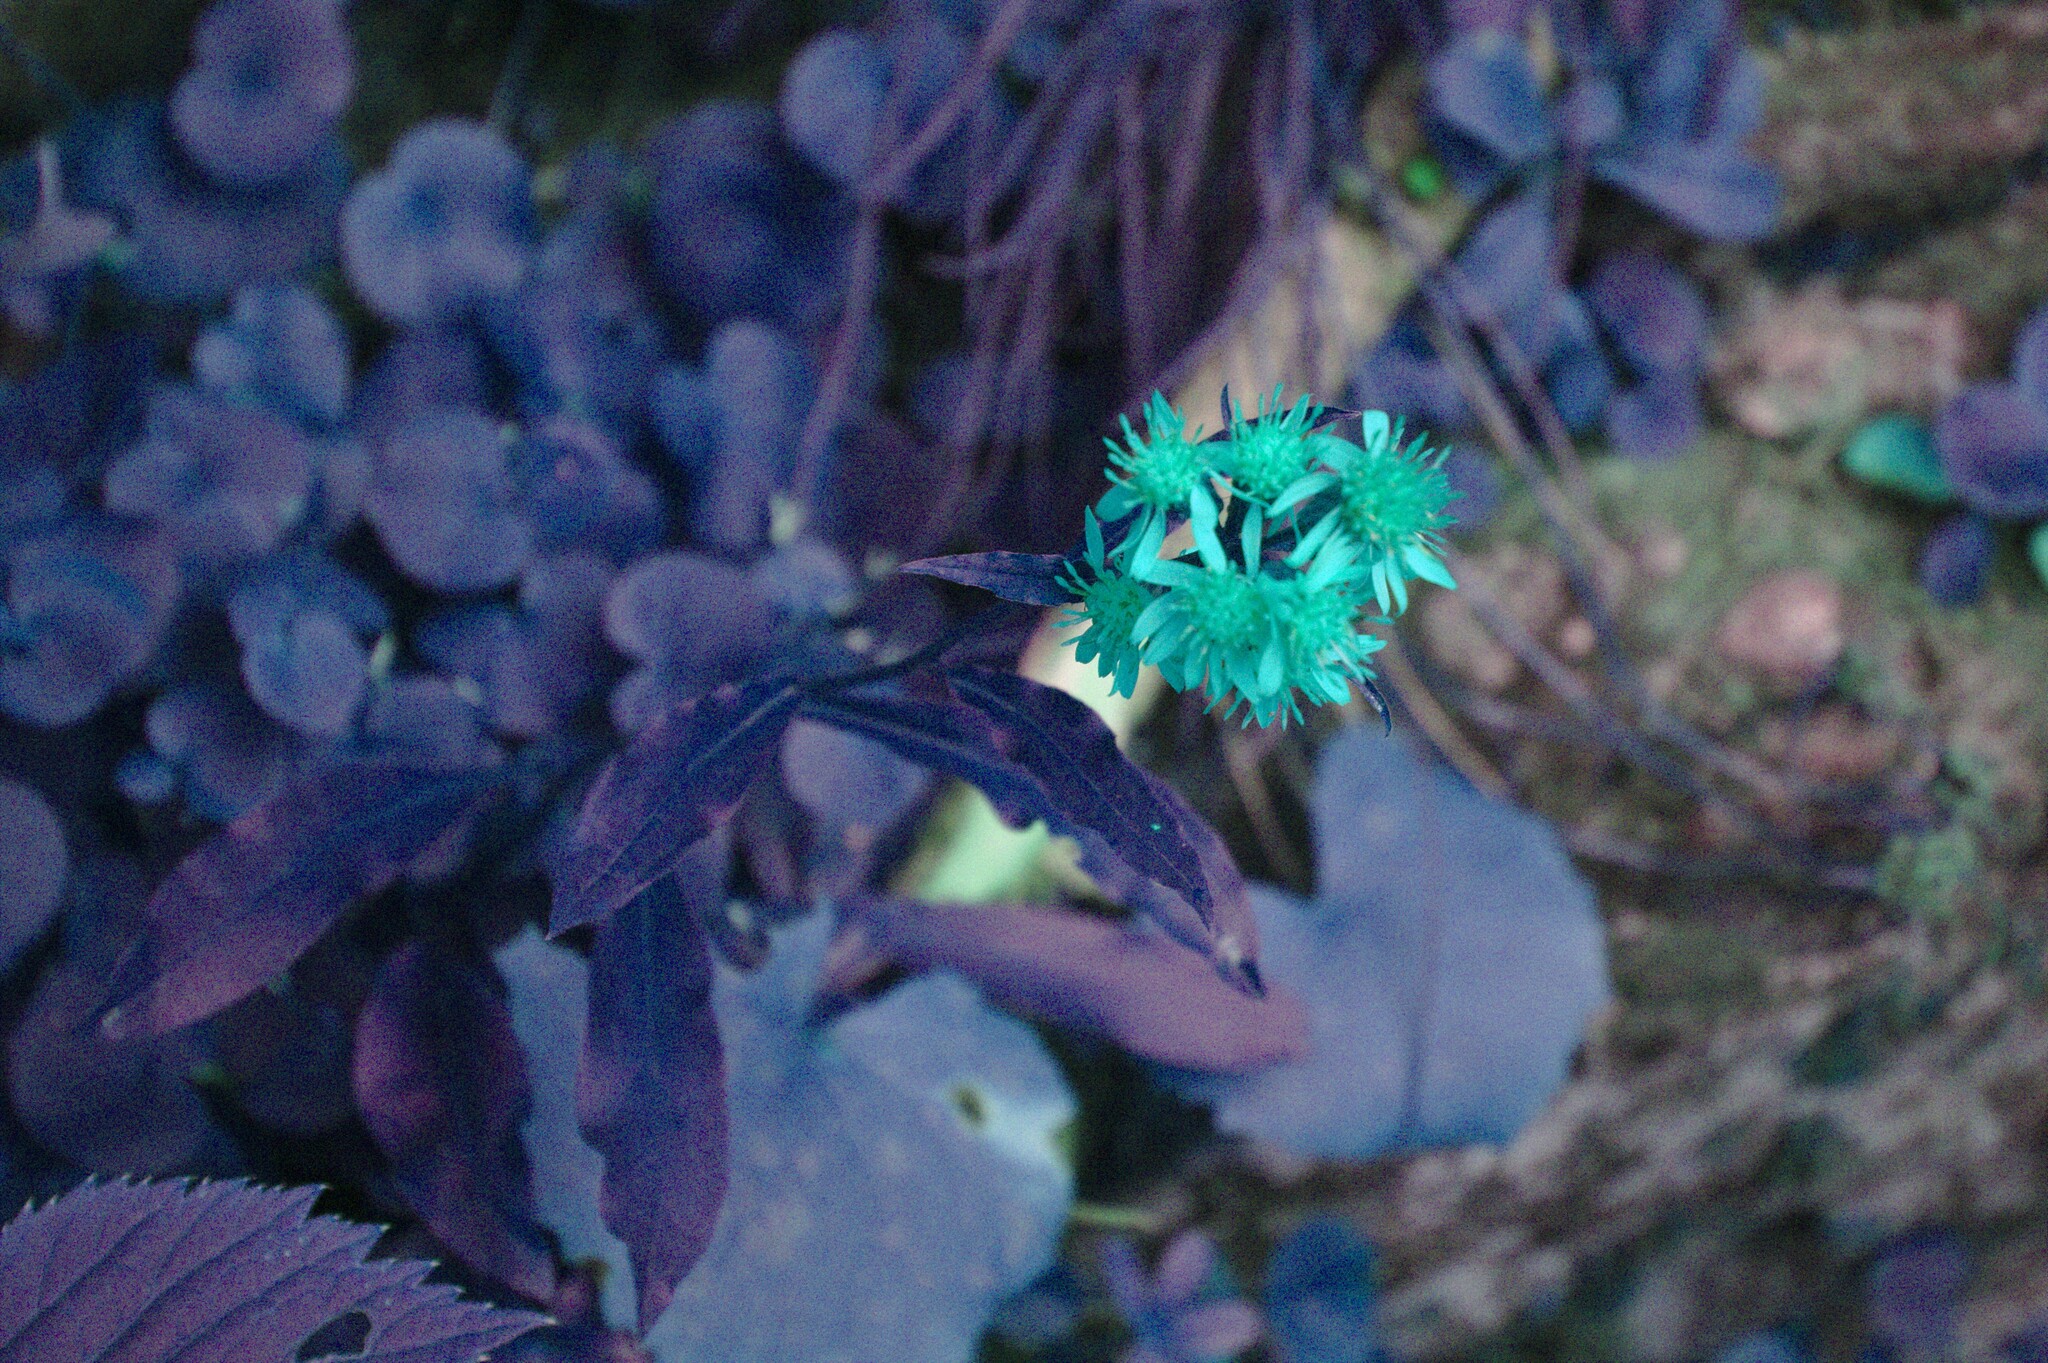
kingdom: Plantae
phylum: Tracheophyta
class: Magnoliopsida
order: Asterales
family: Asteraceae
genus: Solidago
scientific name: Solidago virgaurea
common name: Goldenrod
